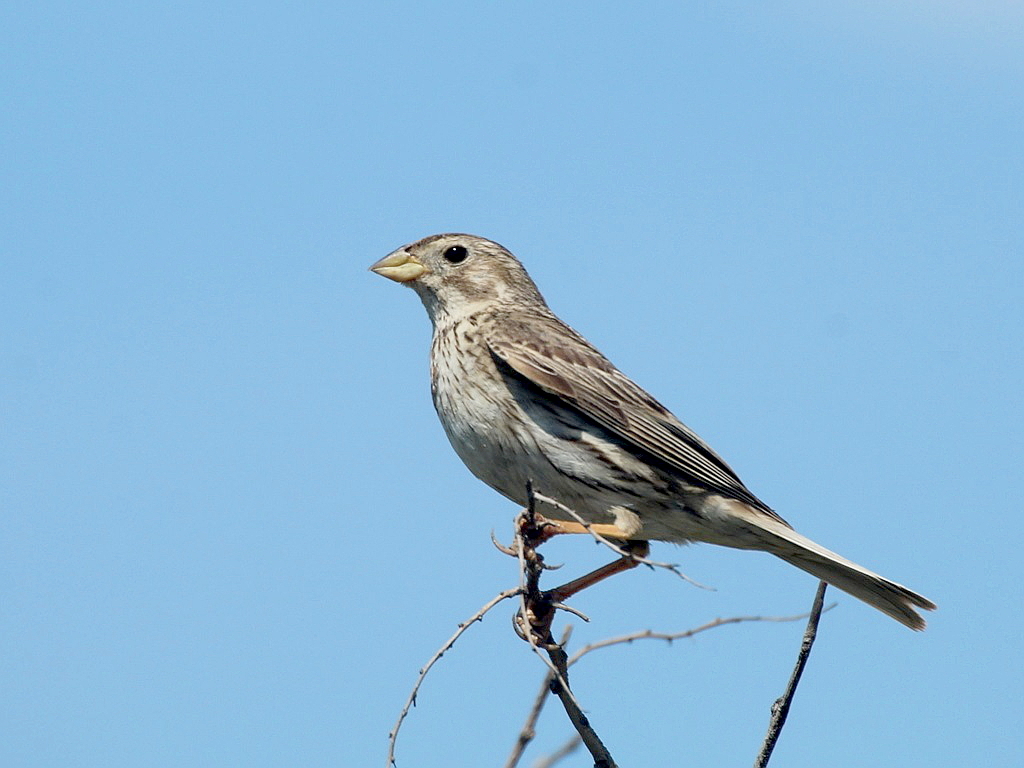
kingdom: Animalia
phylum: Chordata
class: Aves
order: Passeriformes
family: Emberizidae
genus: Emberiza
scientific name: Emberiza calandra
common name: Corn bunting
